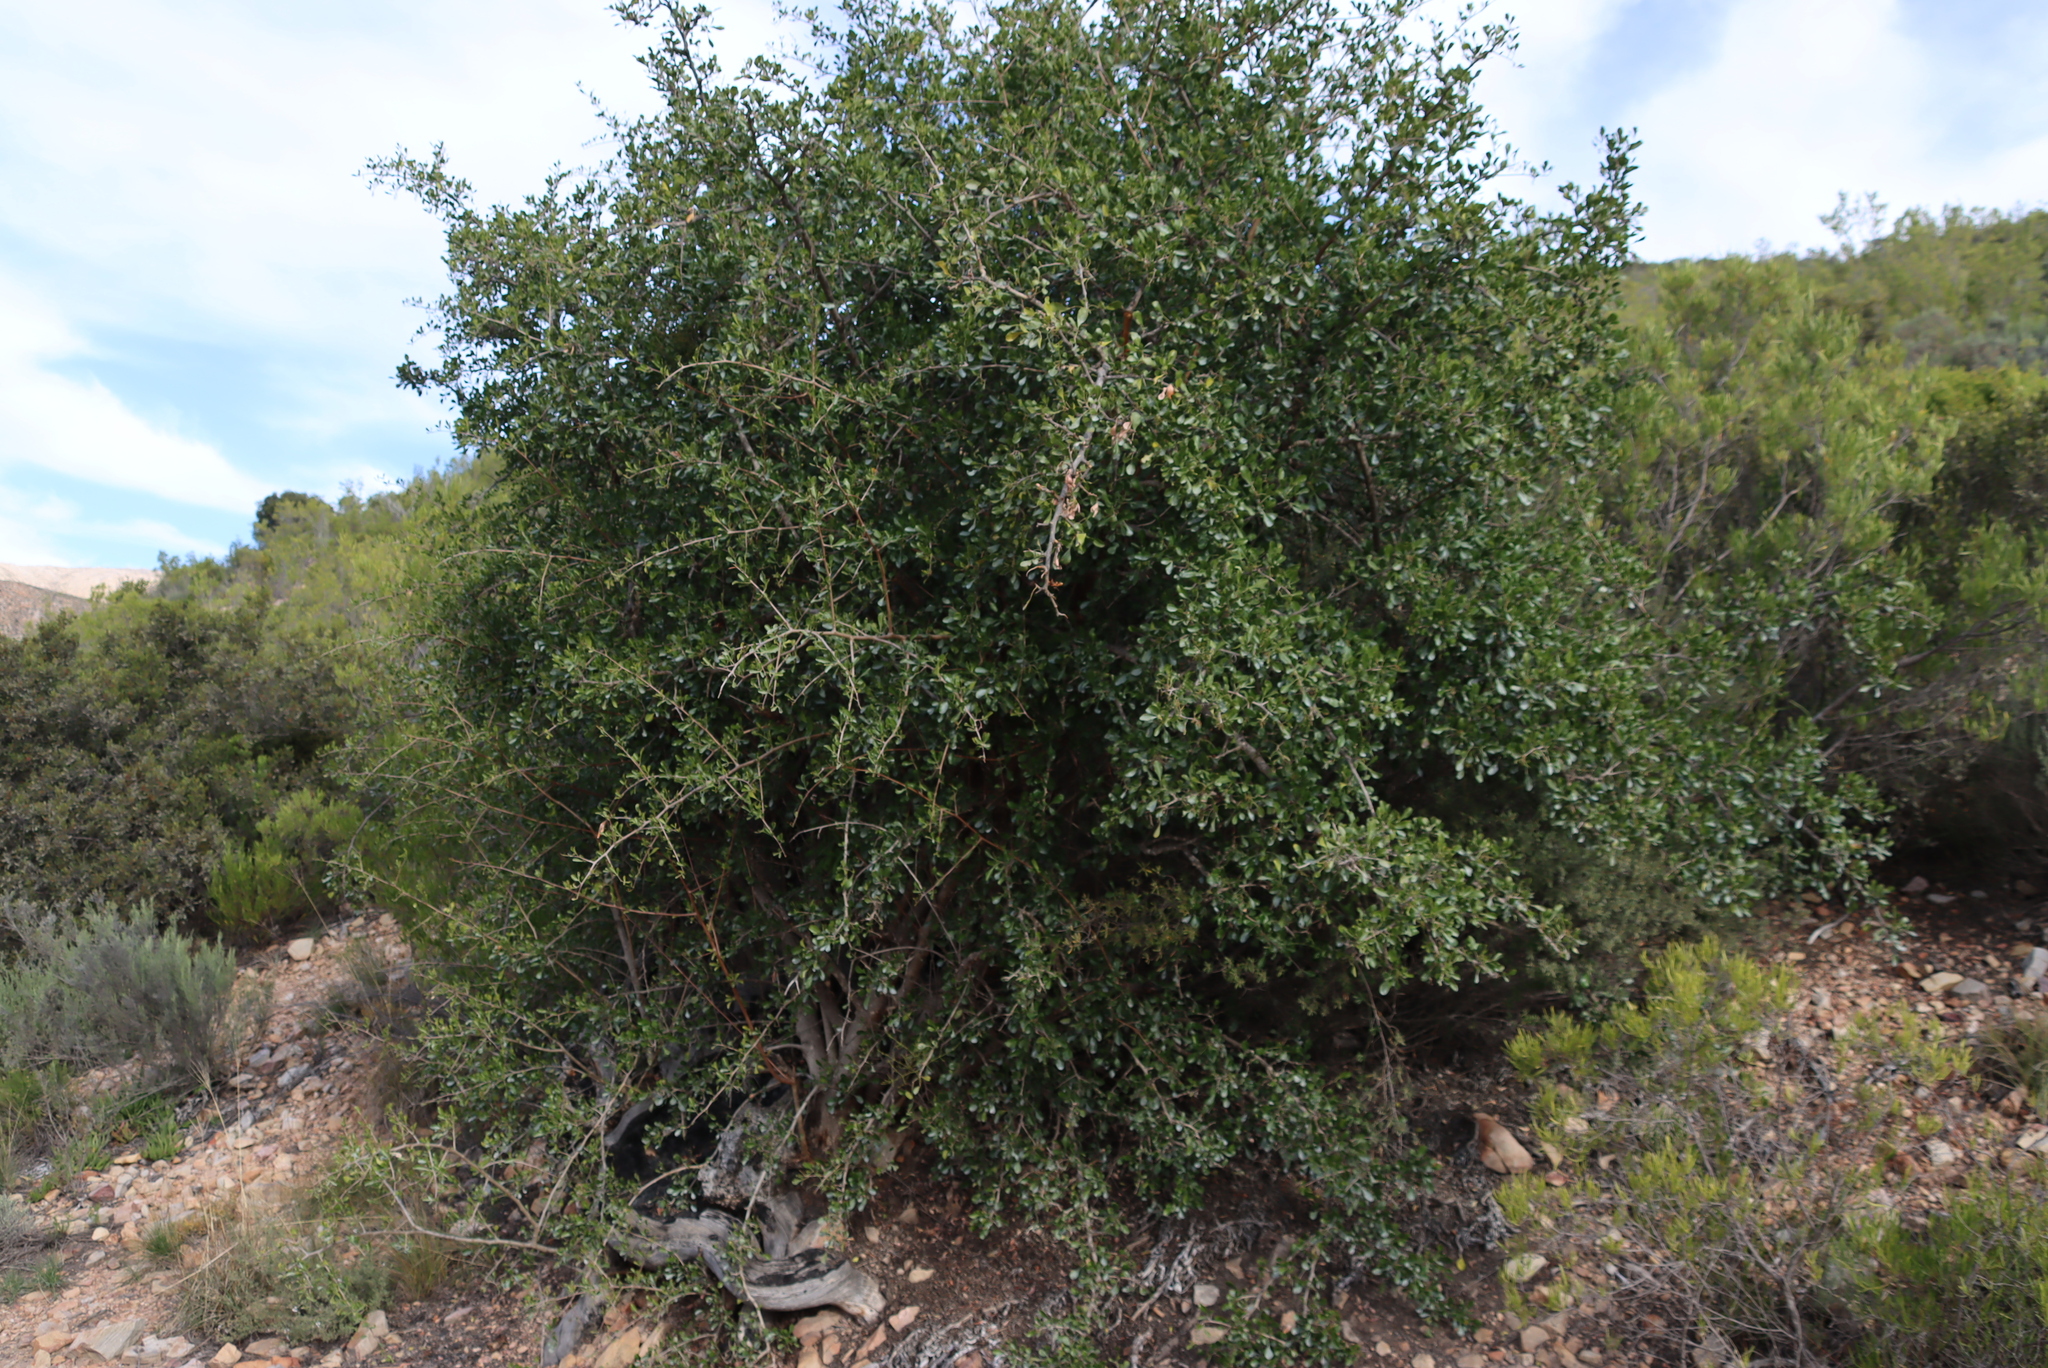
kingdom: Plantae
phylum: Tracheophyta
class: Magnoliopsida
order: Sapindales
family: Anacardiaceae
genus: Searsia
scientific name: Searsia longispina
